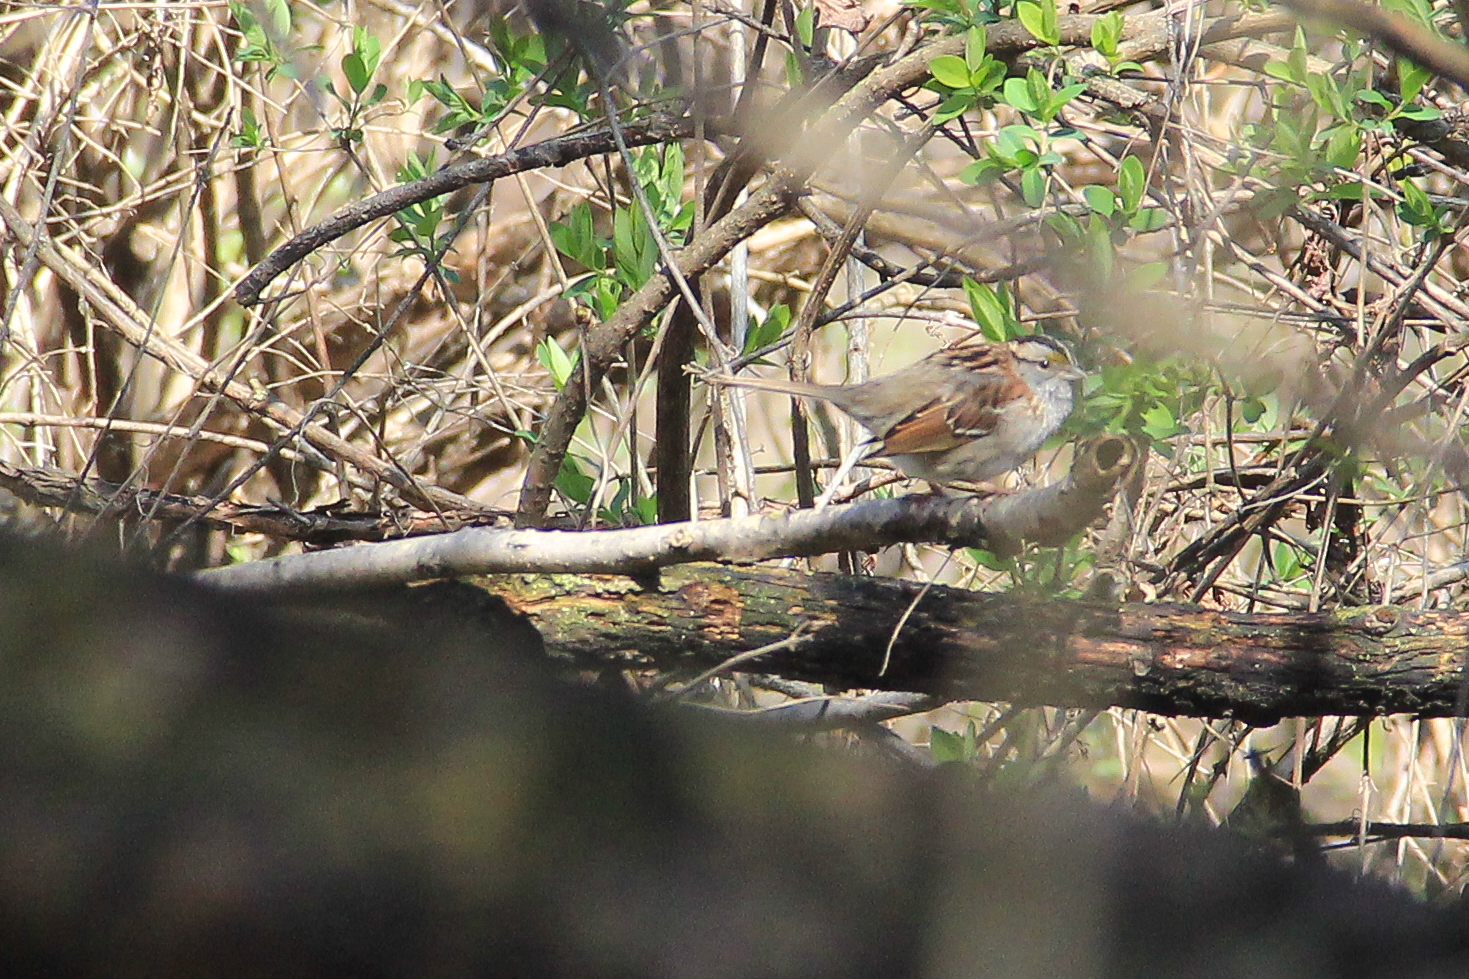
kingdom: Animalia
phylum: Chordata
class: Aves
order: Passeriformes
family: Passerellidae
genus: Zonotrichia
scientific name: Zonotrichia albicollis
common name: White-throated sparrow
